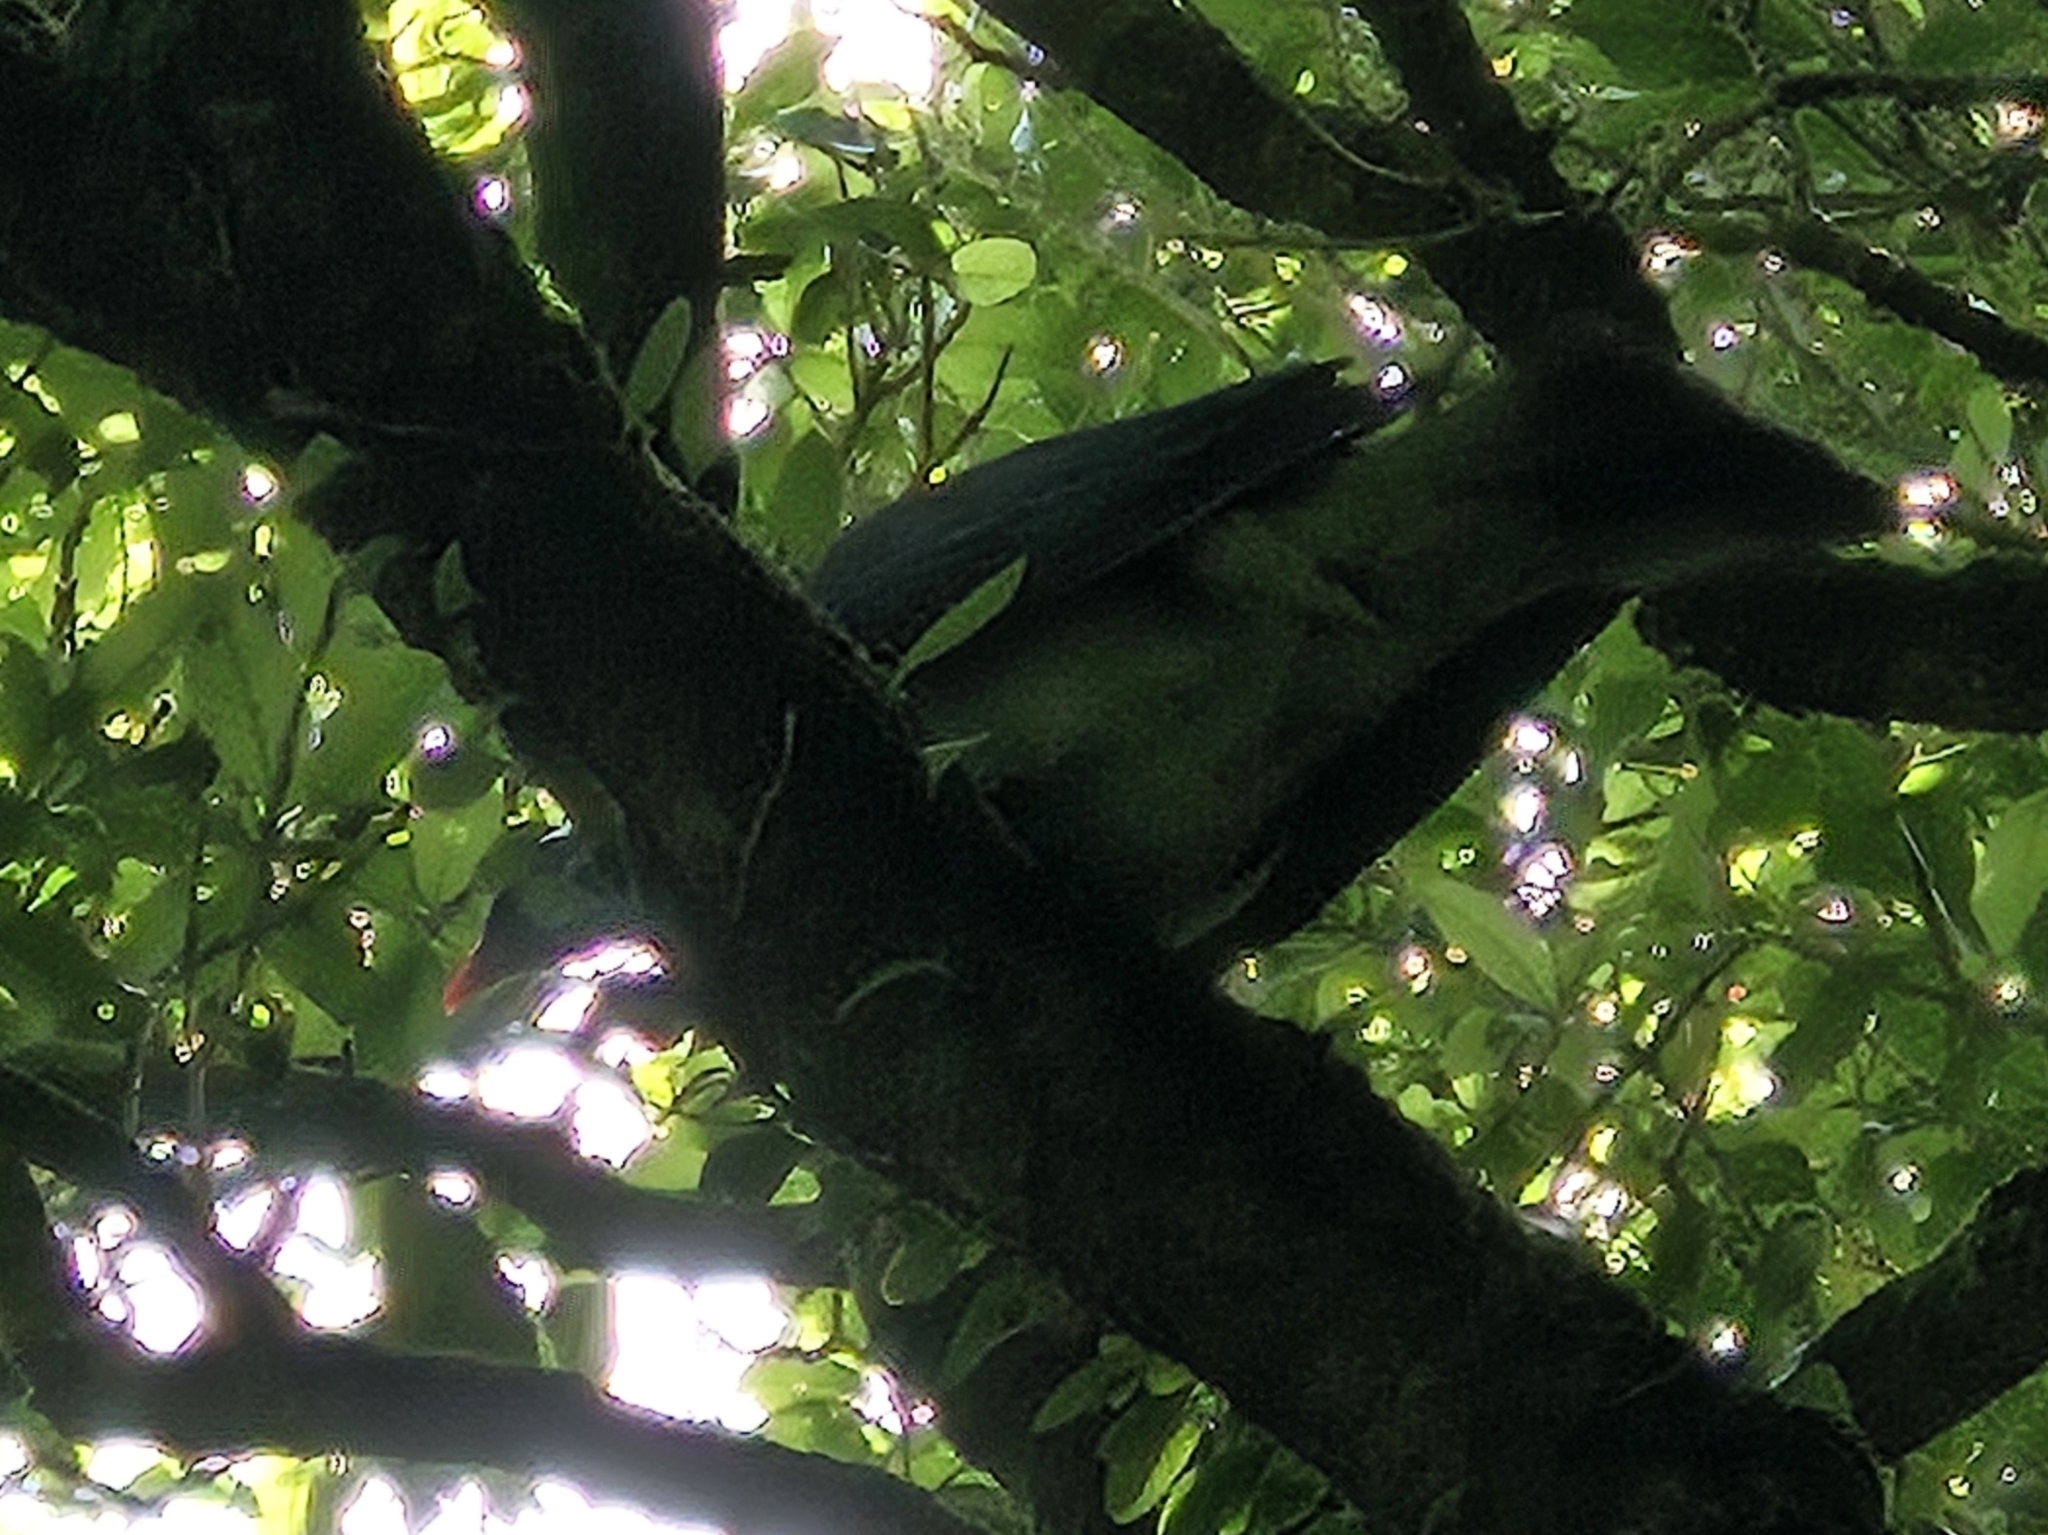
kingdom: Animalia
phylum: Chordata
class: Aves
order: Columbiformes
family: Columbidae
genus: Hemiphaga
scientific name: Hemiphaga novaeseelandiae
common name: New zealand pigeon
